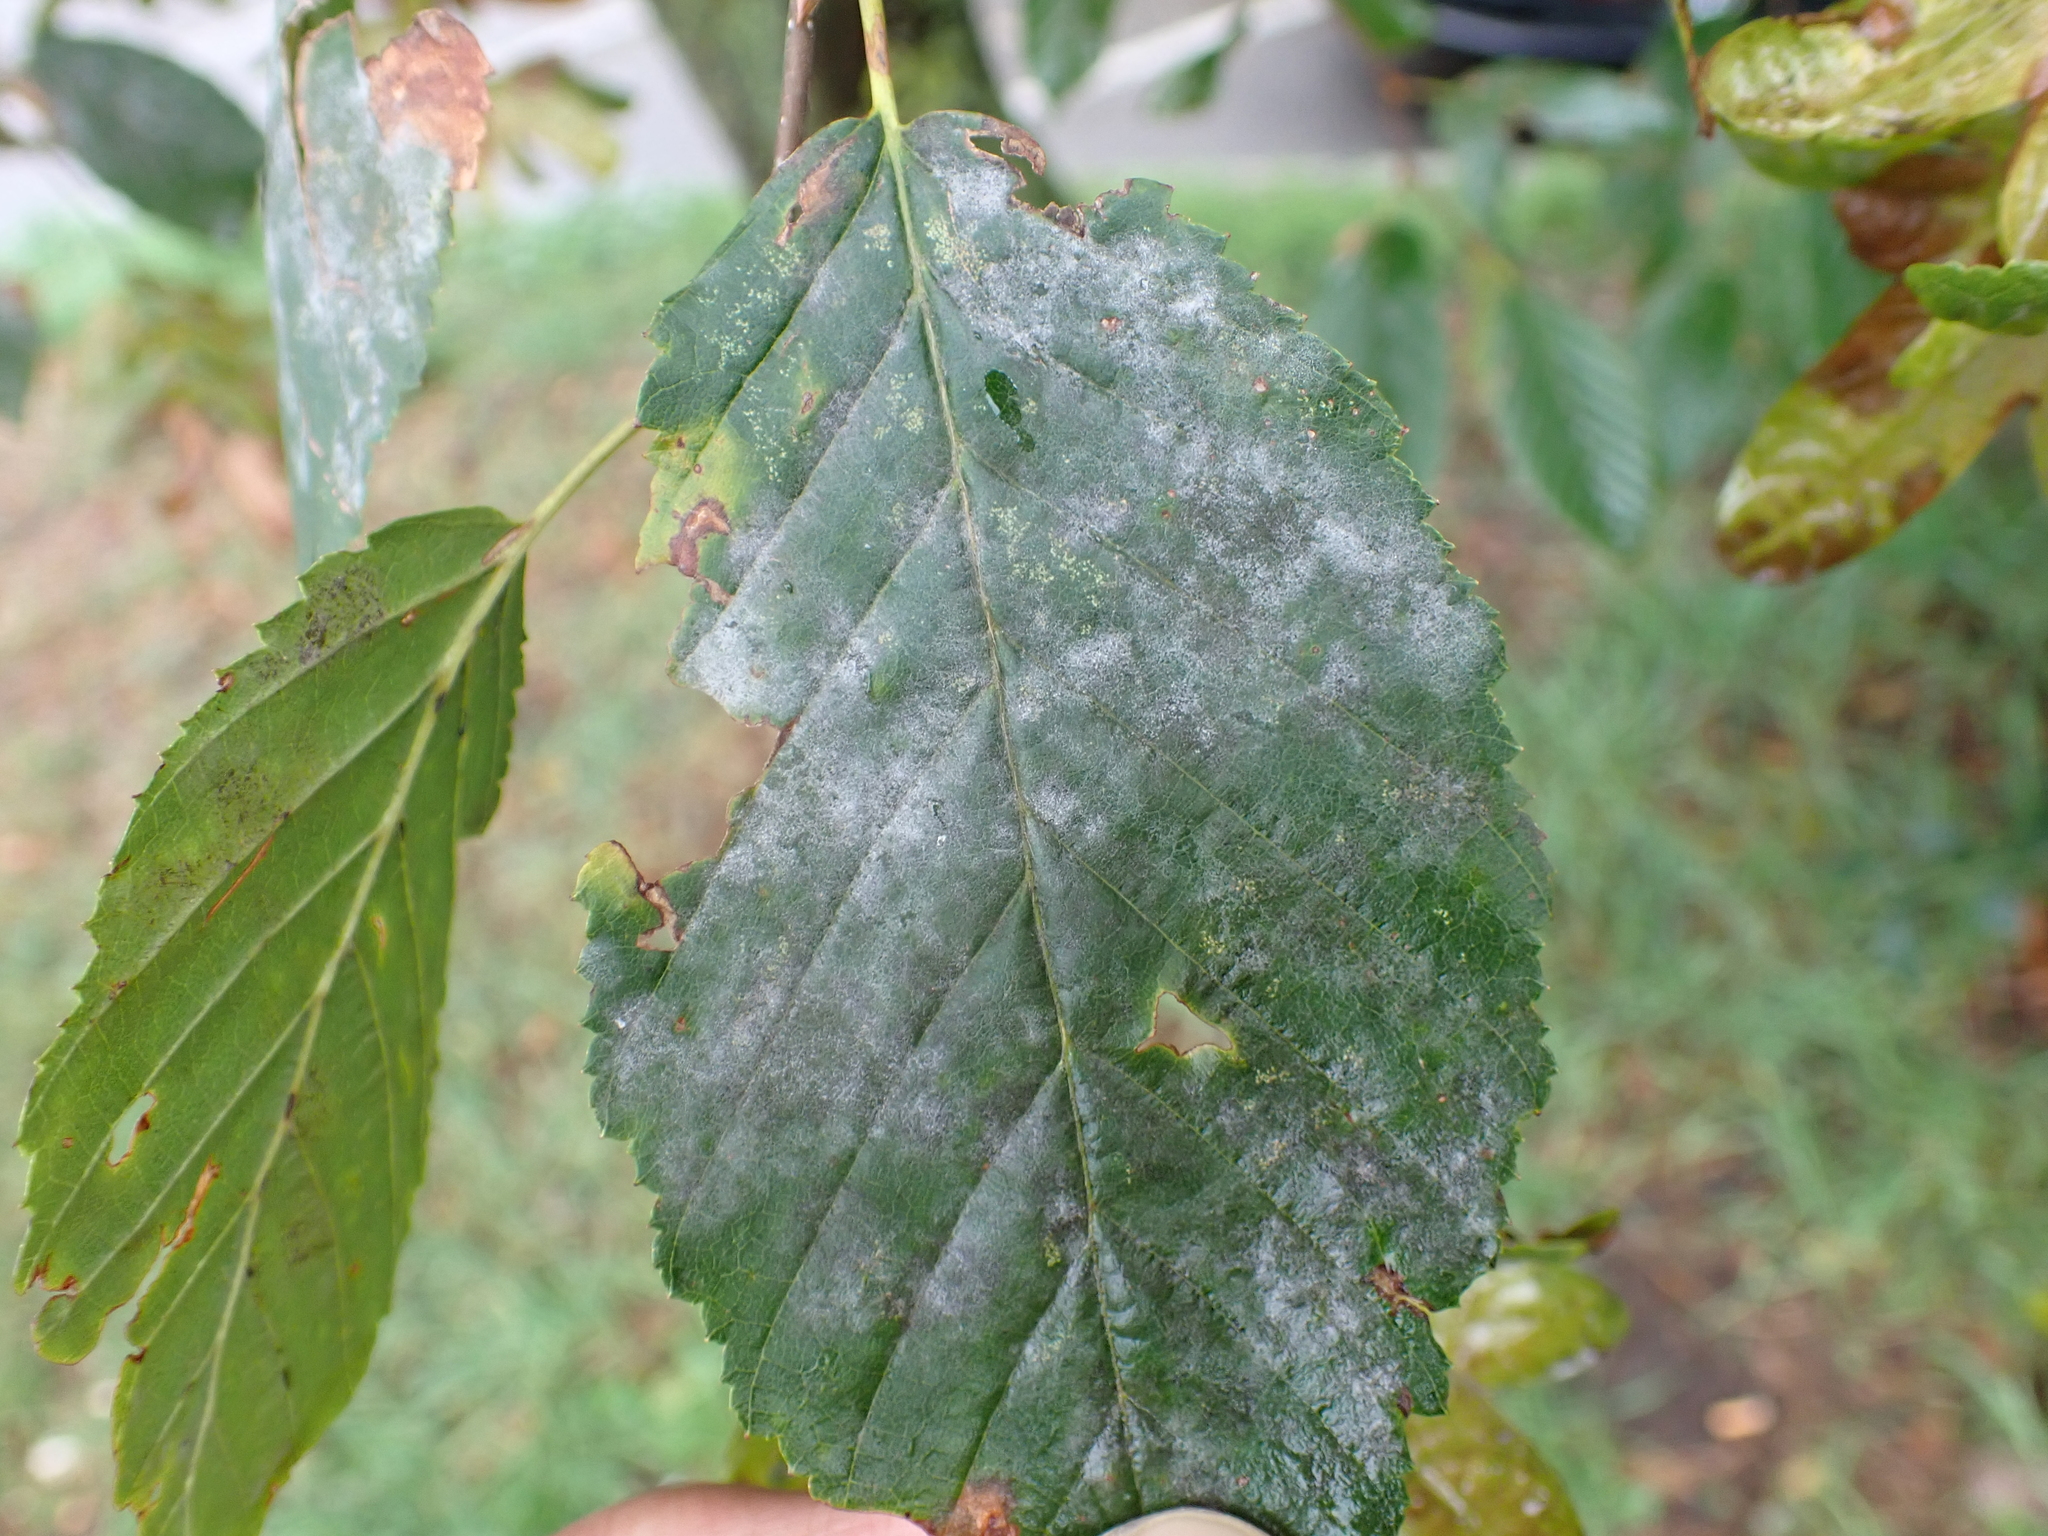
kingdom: Fungi
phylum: Ascomycota
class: Leotiomycetes
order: Helotiales
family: Erysiphaceae
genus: Erysiphe
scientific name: Erysiphe arcuata
